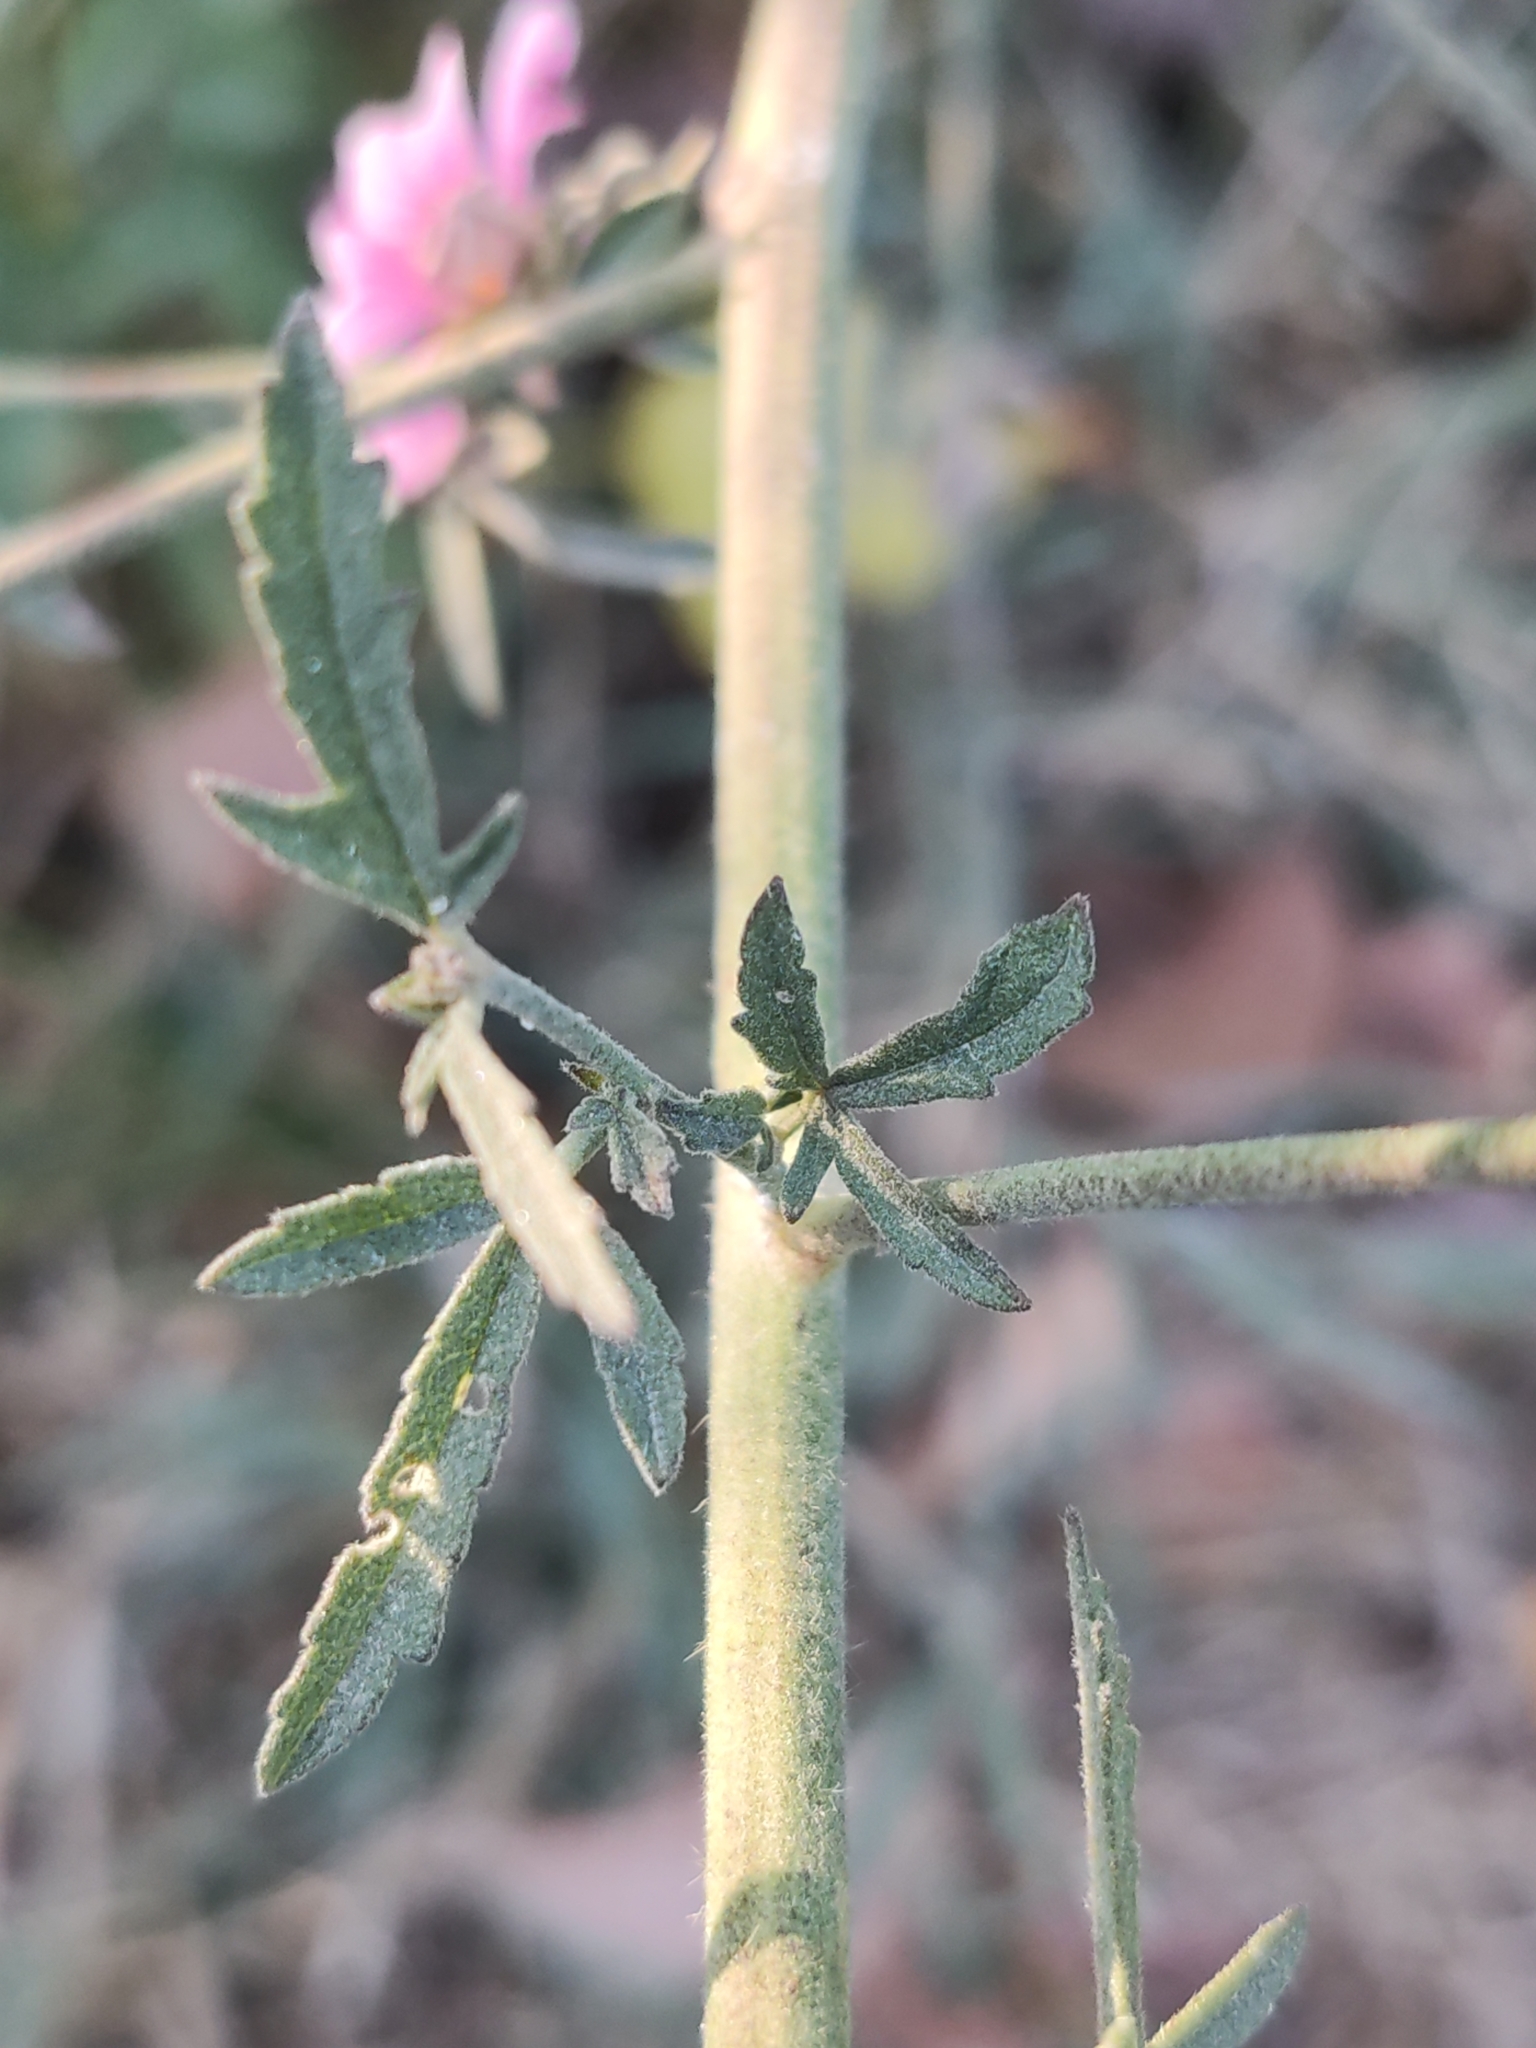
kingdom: Plantae
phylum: Tracheophyta
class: Magnoliopsida
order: Malvales
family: Malvaceae
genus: Althaea
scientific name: Althaea cannabina
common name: Palm-leaf marshmallow
